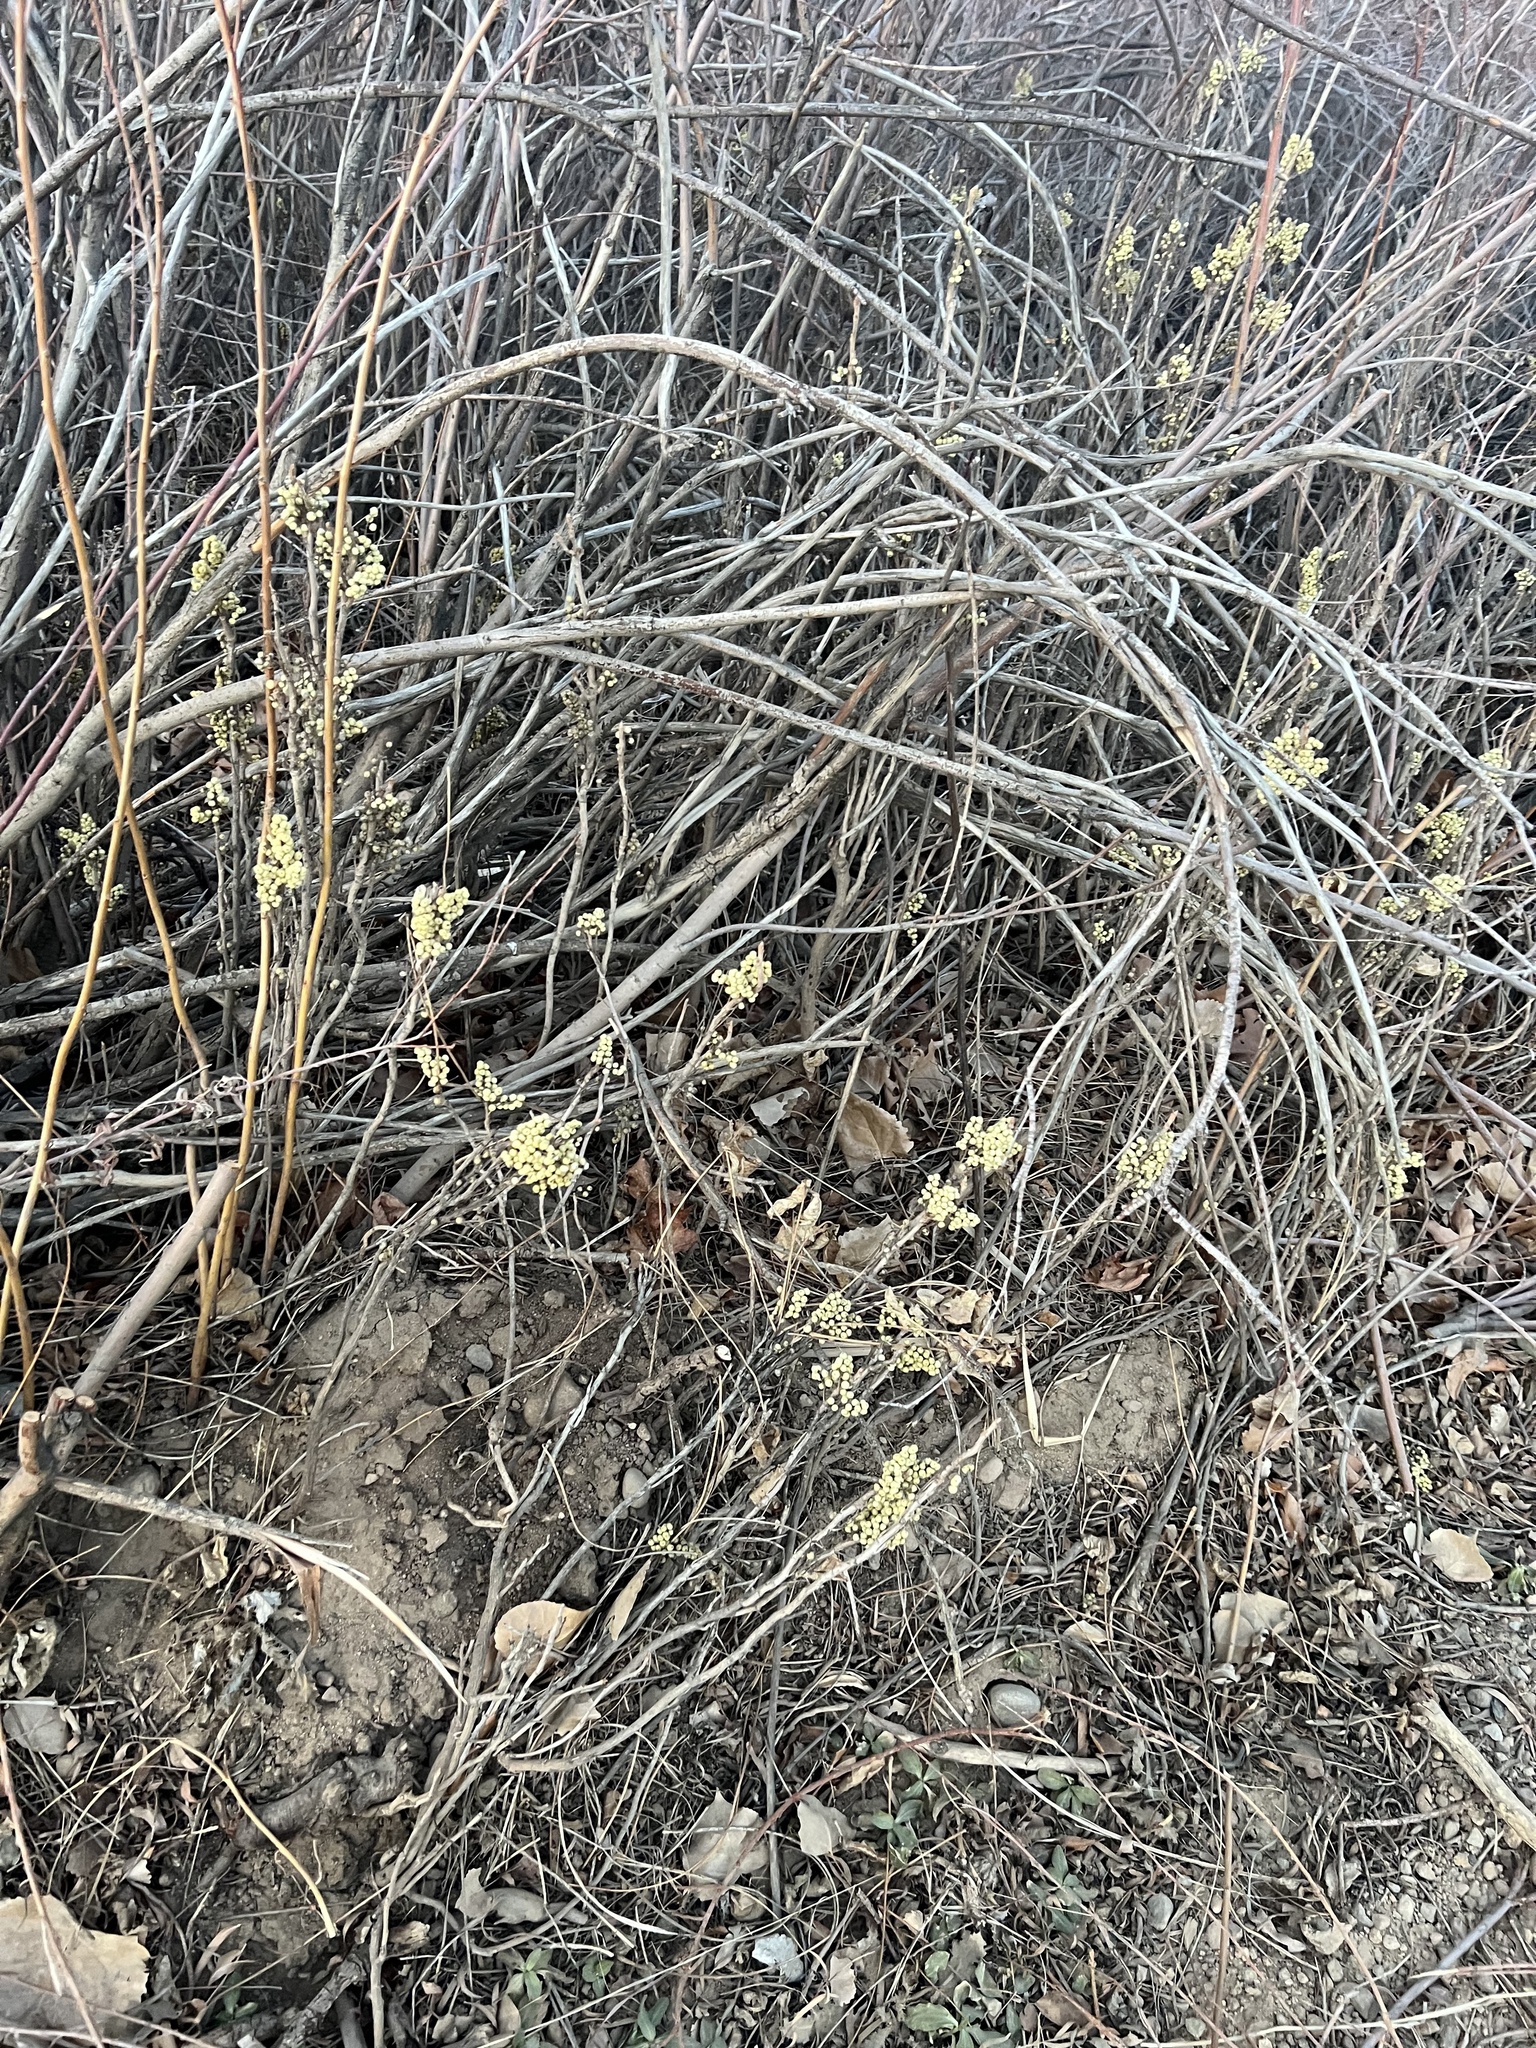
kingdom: Plantae
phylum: Tracheophyta
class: Magnoliopsida
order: Sapindales
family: Anacardiaceae
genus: Toxicodendron
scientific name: Toxicodendron rydbergii
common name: Rydberg's poison-ivy
